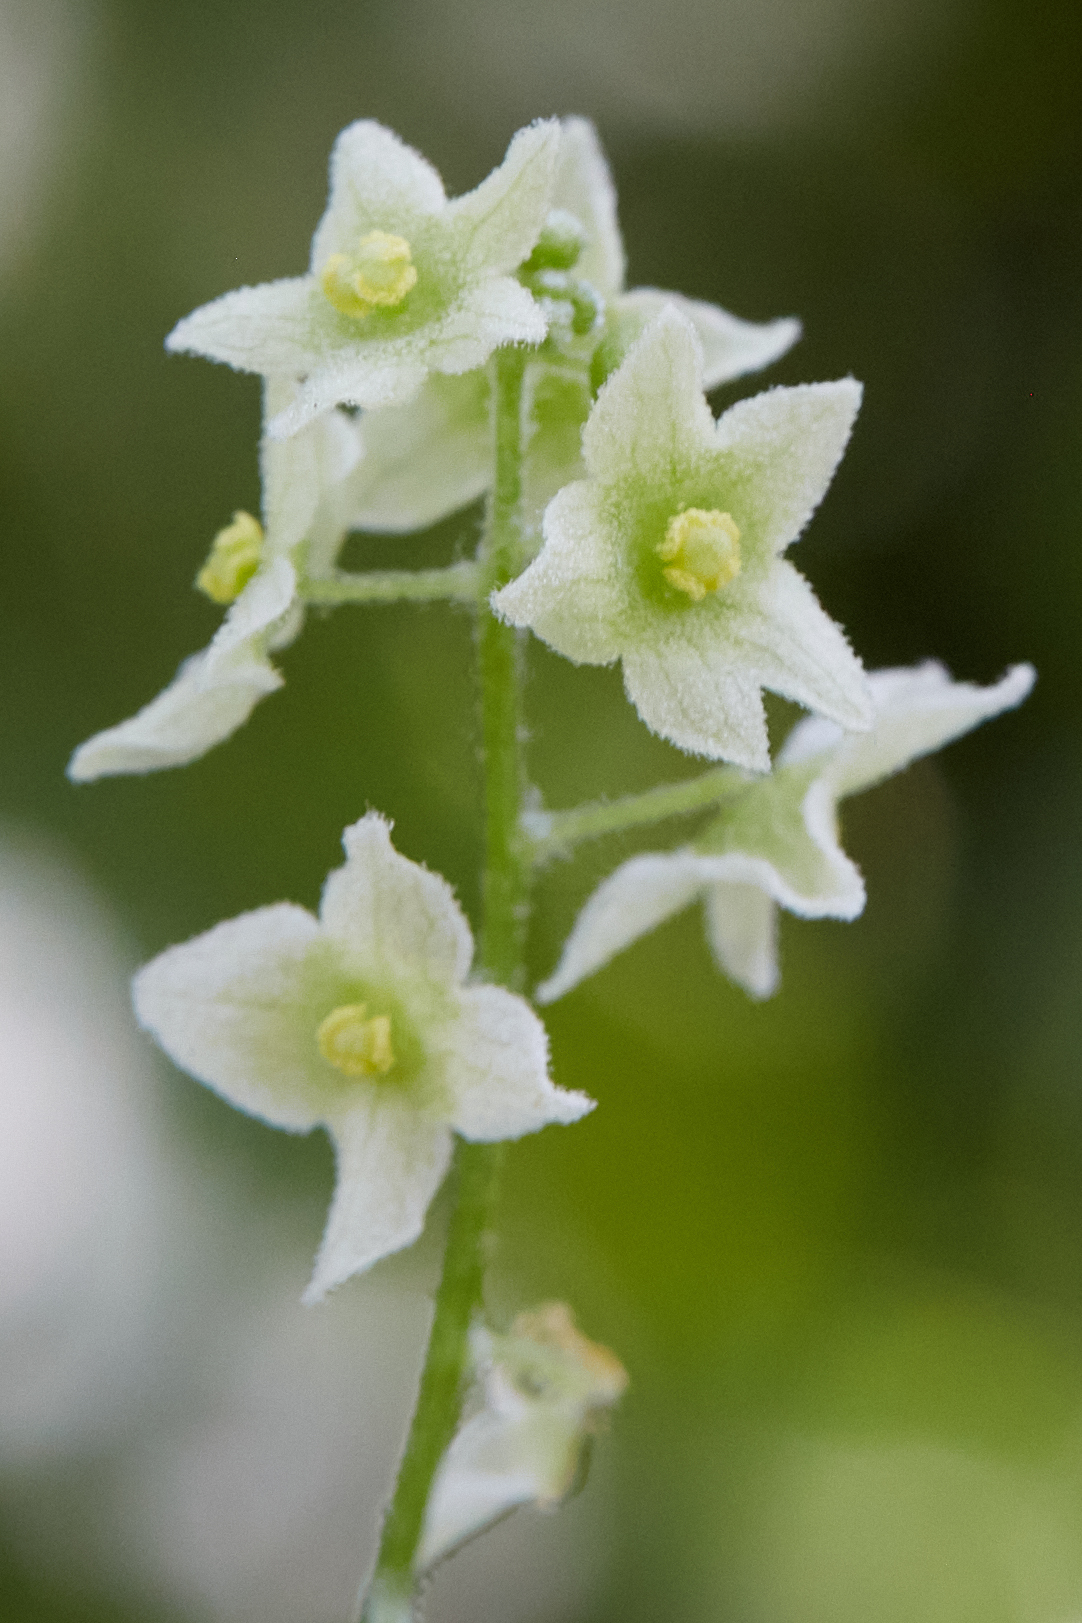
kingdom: Plantae
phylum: Tracheophyta
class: Magnoliopsida
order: Cucurbitales
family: Cucurbitaceae
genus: Marah
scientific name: Marah fabacea
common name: California manroot
